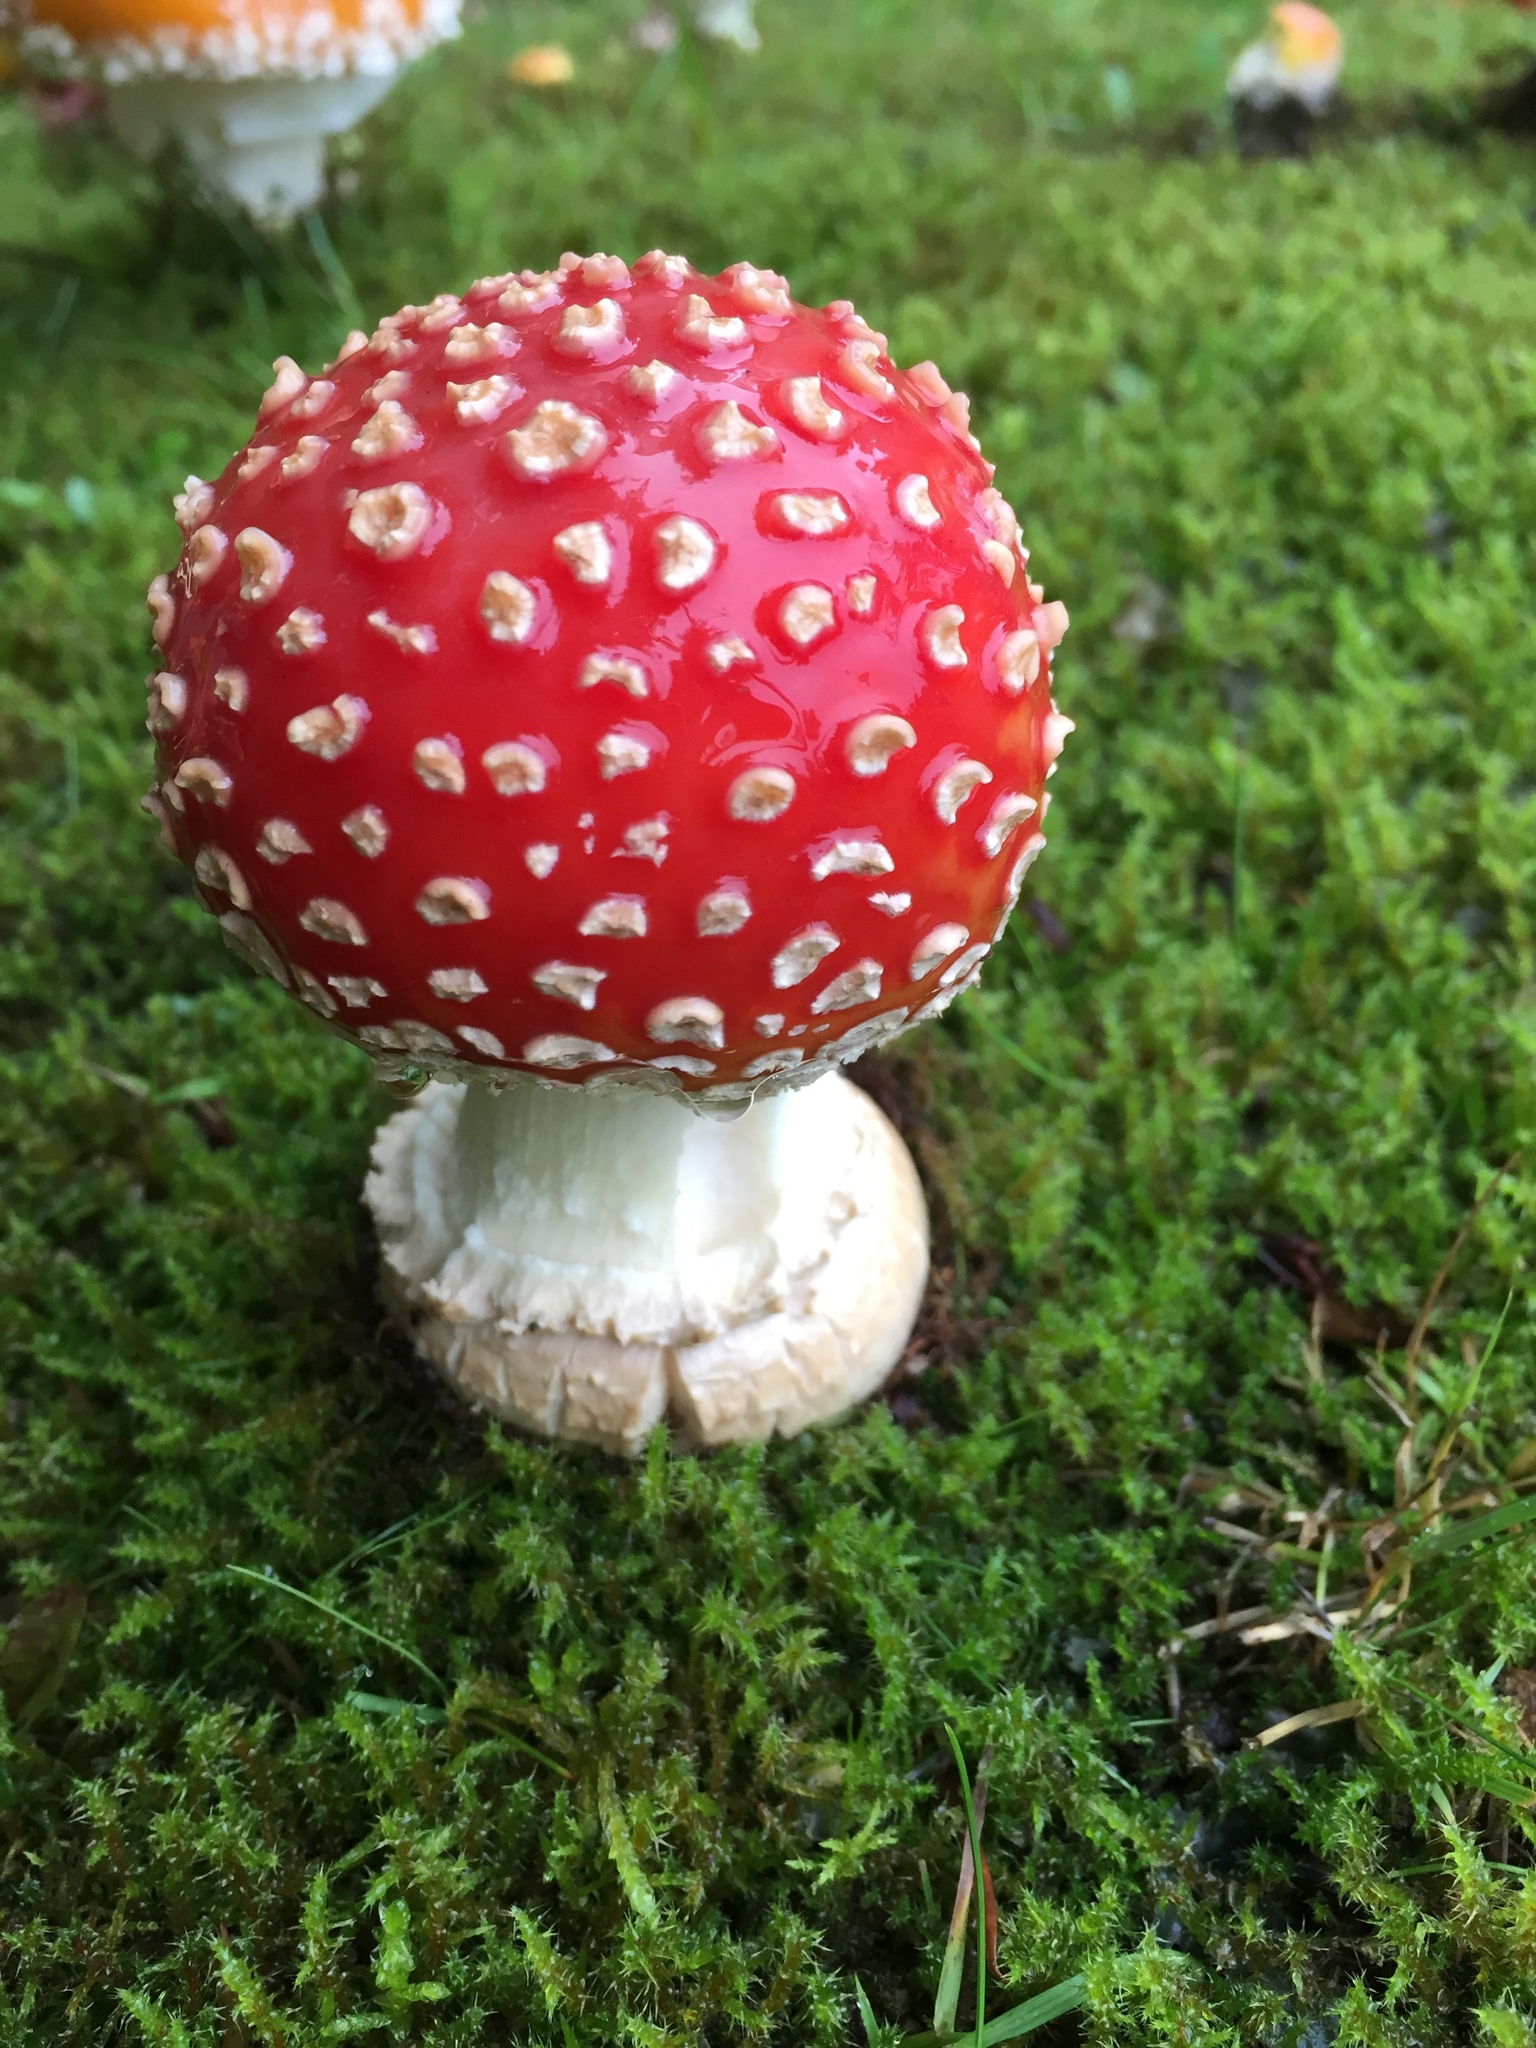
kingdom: Fungi
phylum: Basidiomycota
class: Agaricomycetes
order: Agaricales
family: Amanitaceae
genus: Amanita
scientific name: Amanita muscaria
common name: Fly agaric
